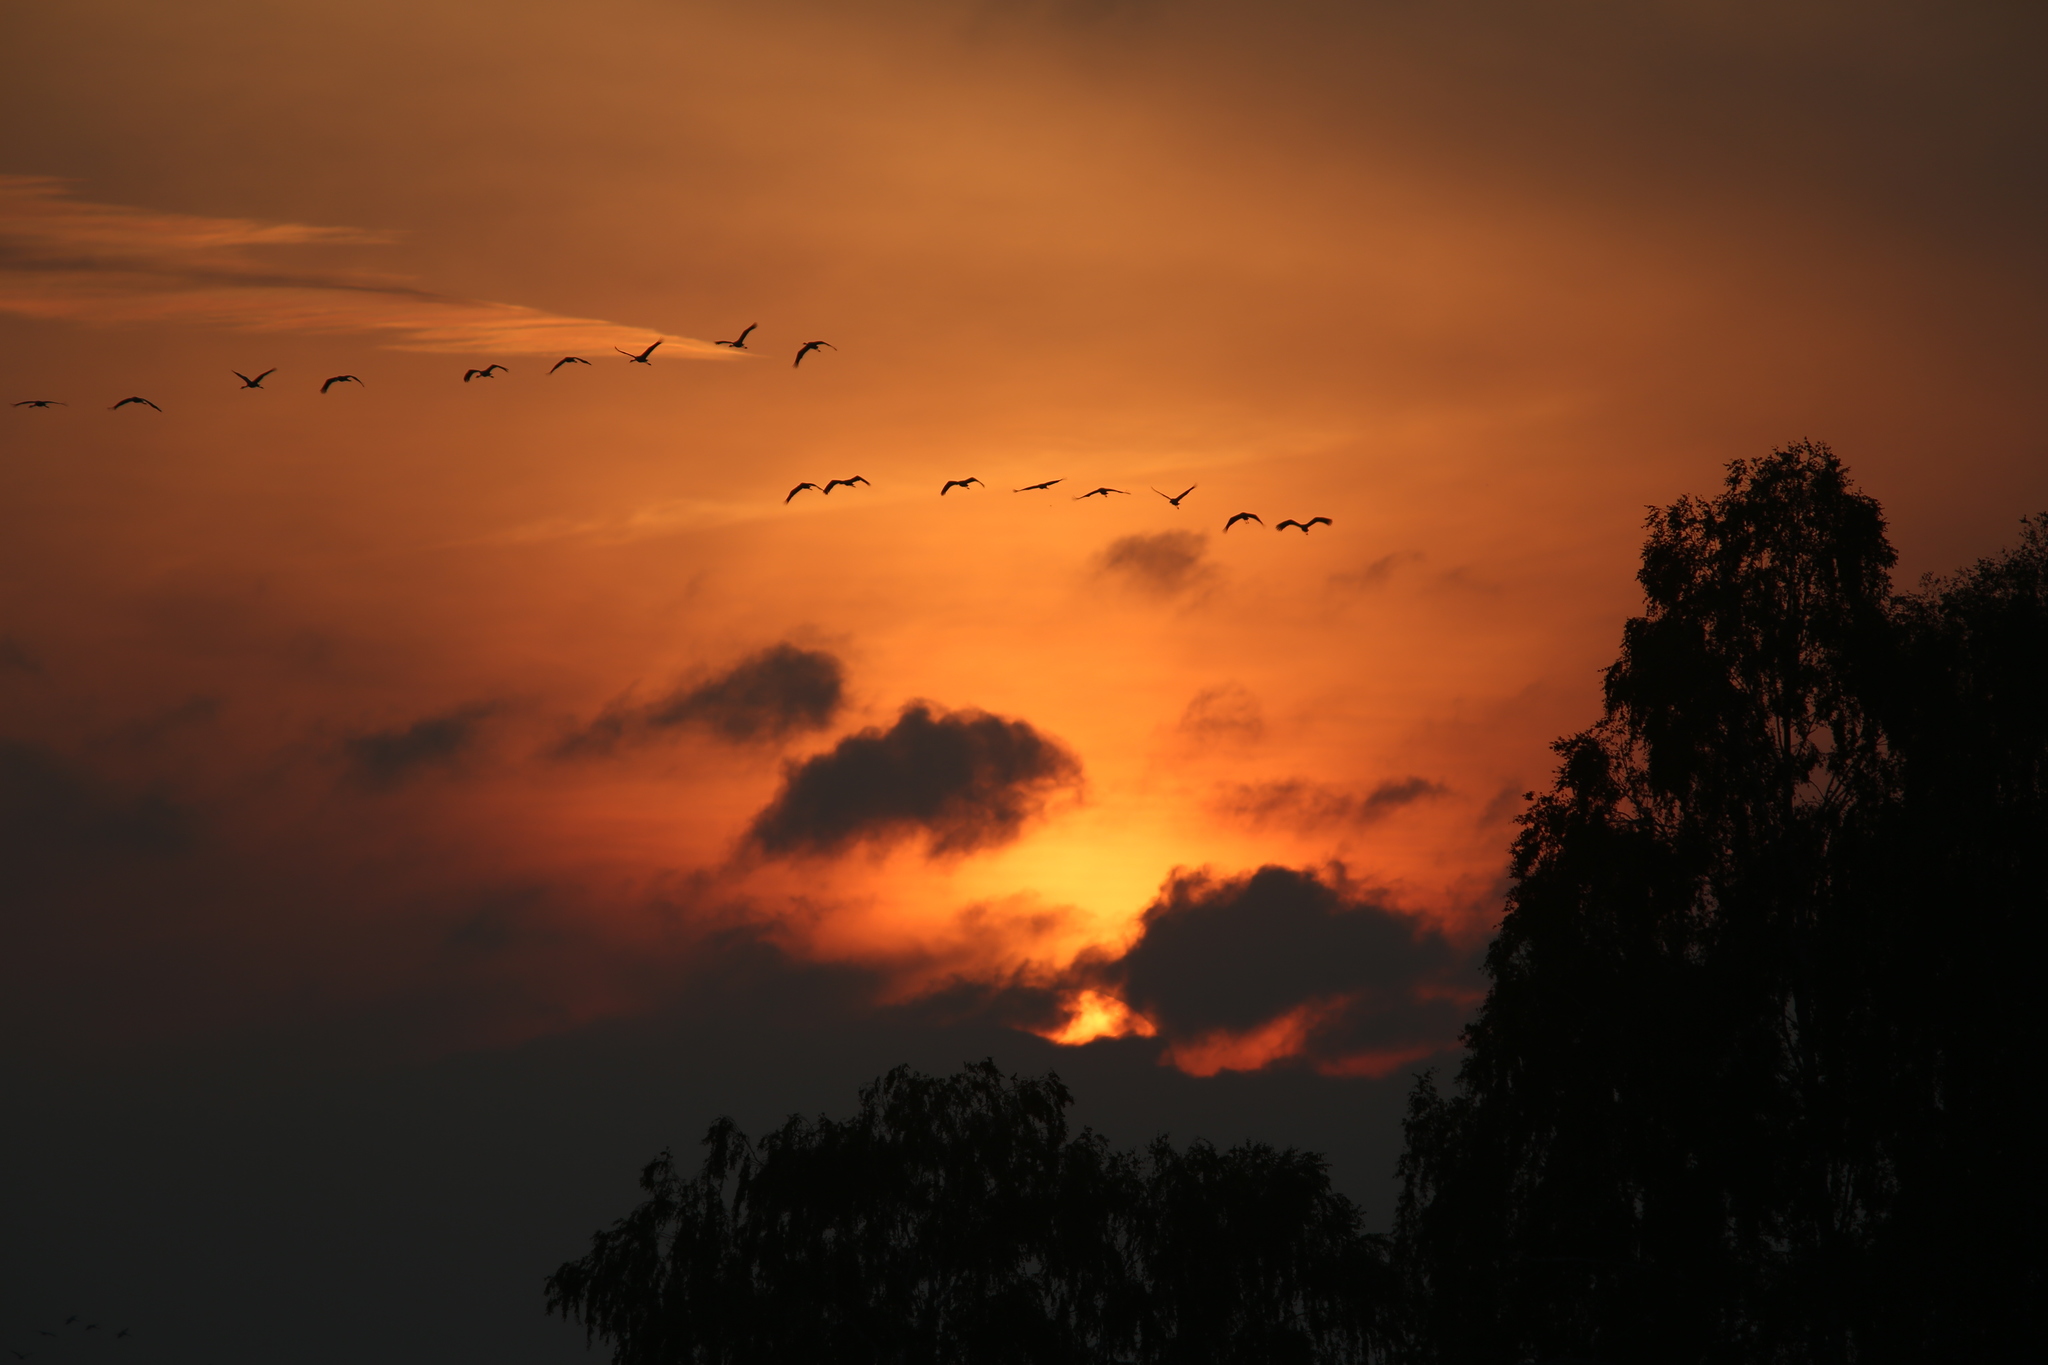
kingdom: Animalia
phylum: Chordata
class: Aves
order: Gruiformes
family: Gruidae
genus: Grus
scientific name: Grus grus
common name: Common crane
